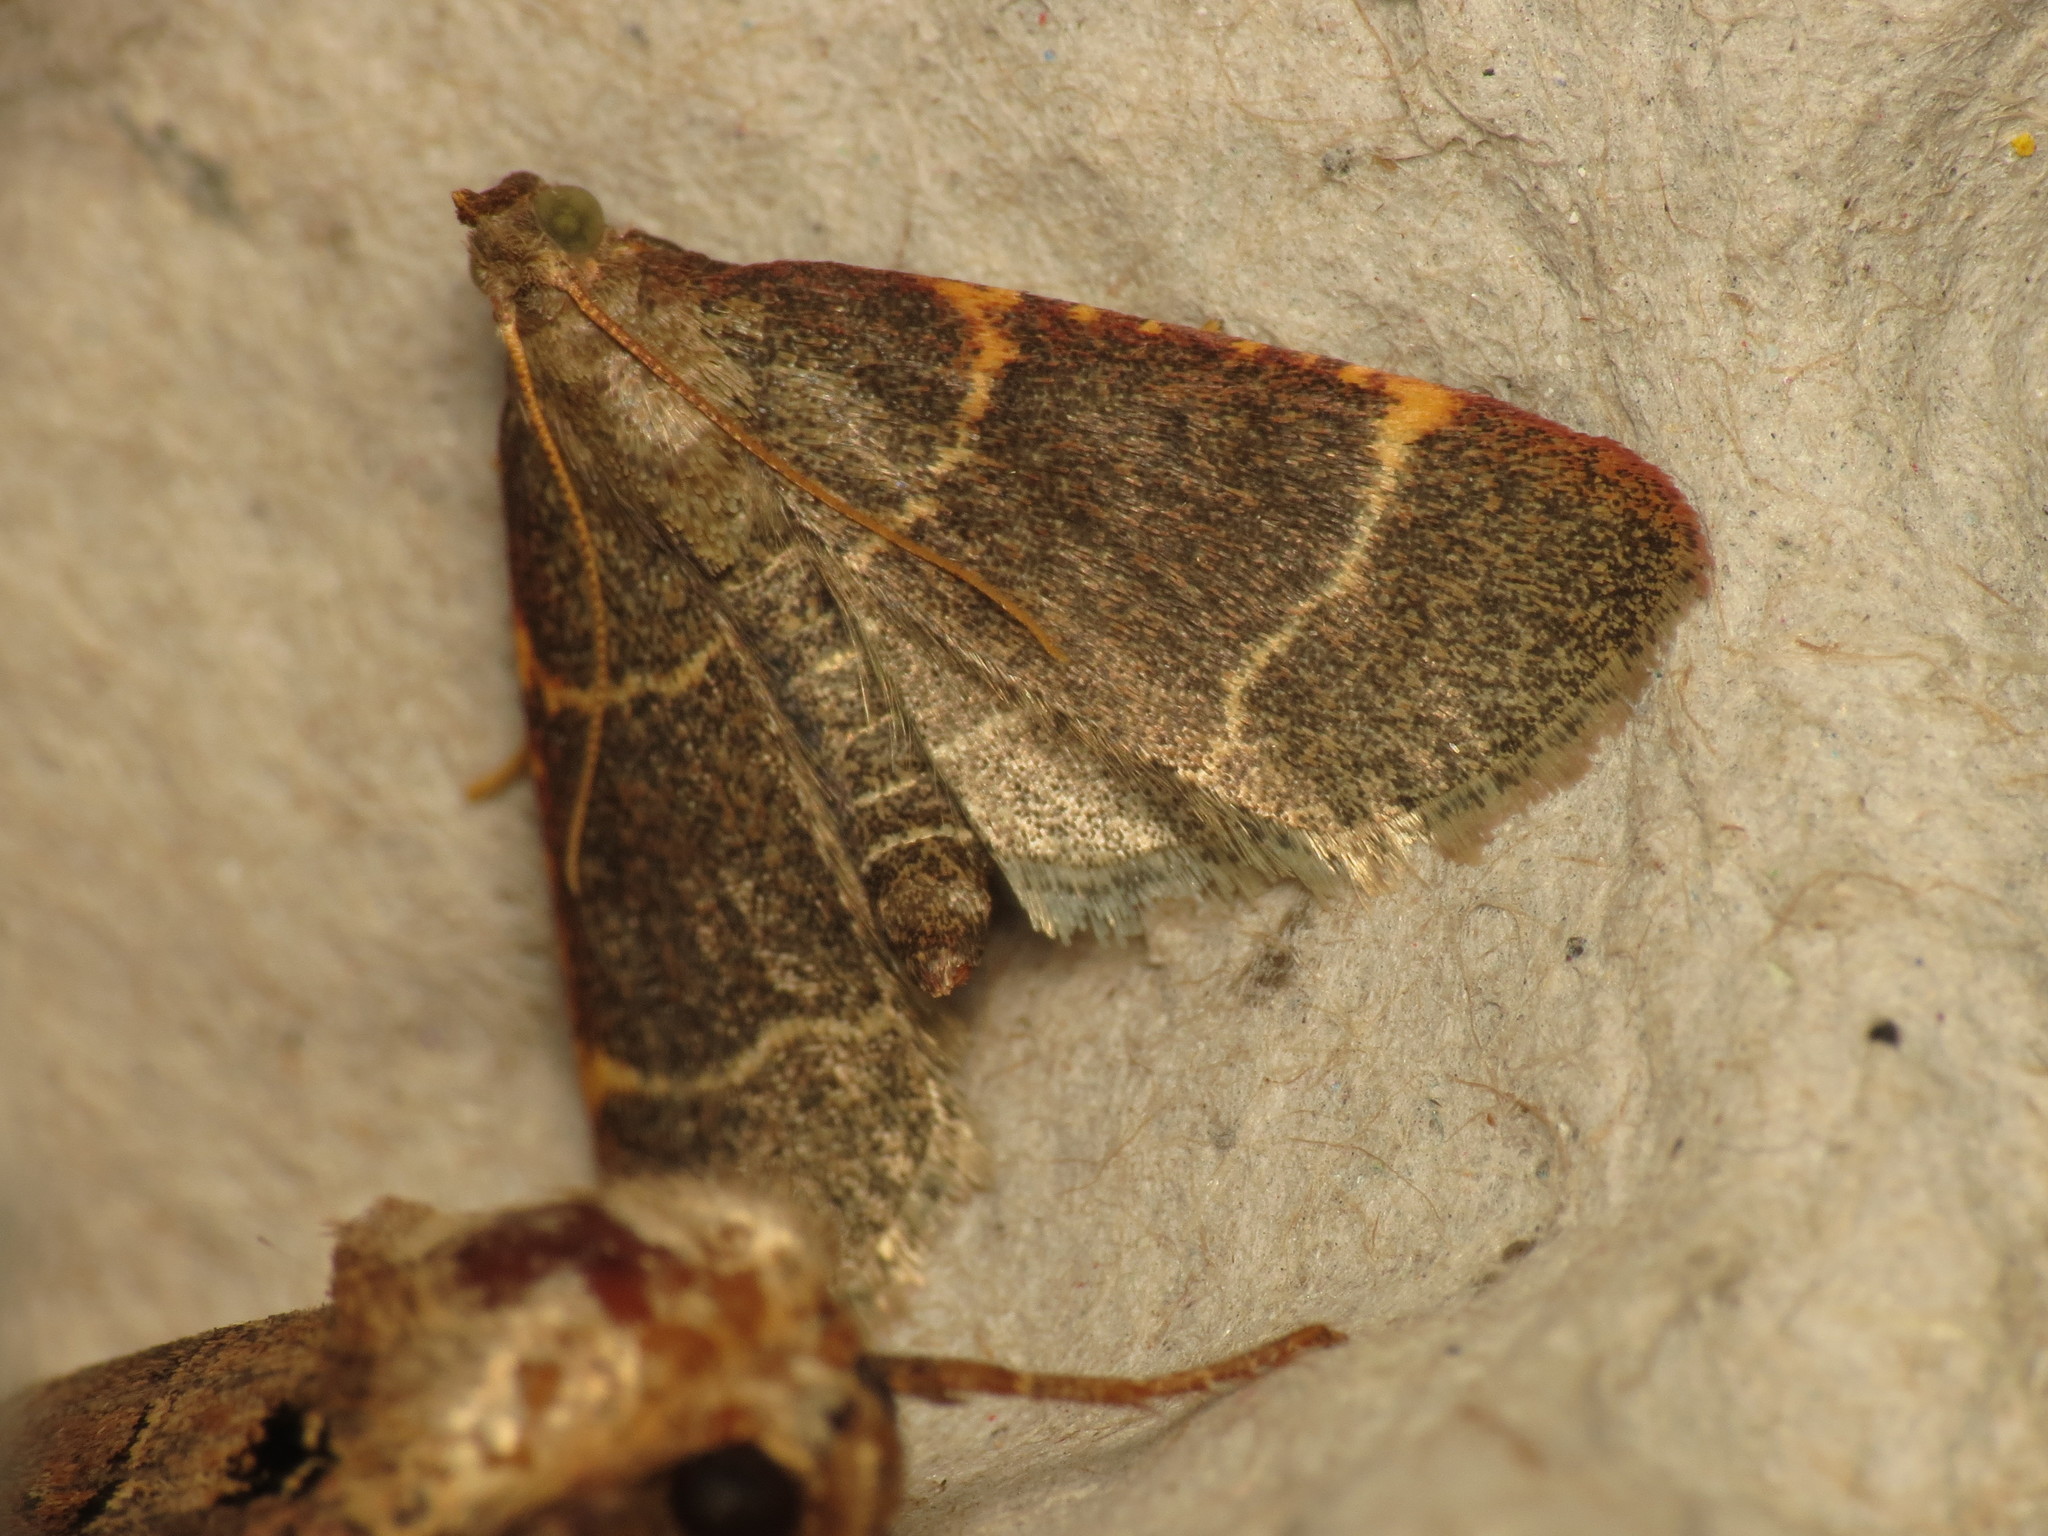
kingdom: Animalia
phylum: Arthropoda
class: Insecta
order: Lepidoptera
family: Pyralidae
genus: Hypsopygia
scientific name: Hypsopygia glaucinalis
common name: Double-striped tabby
